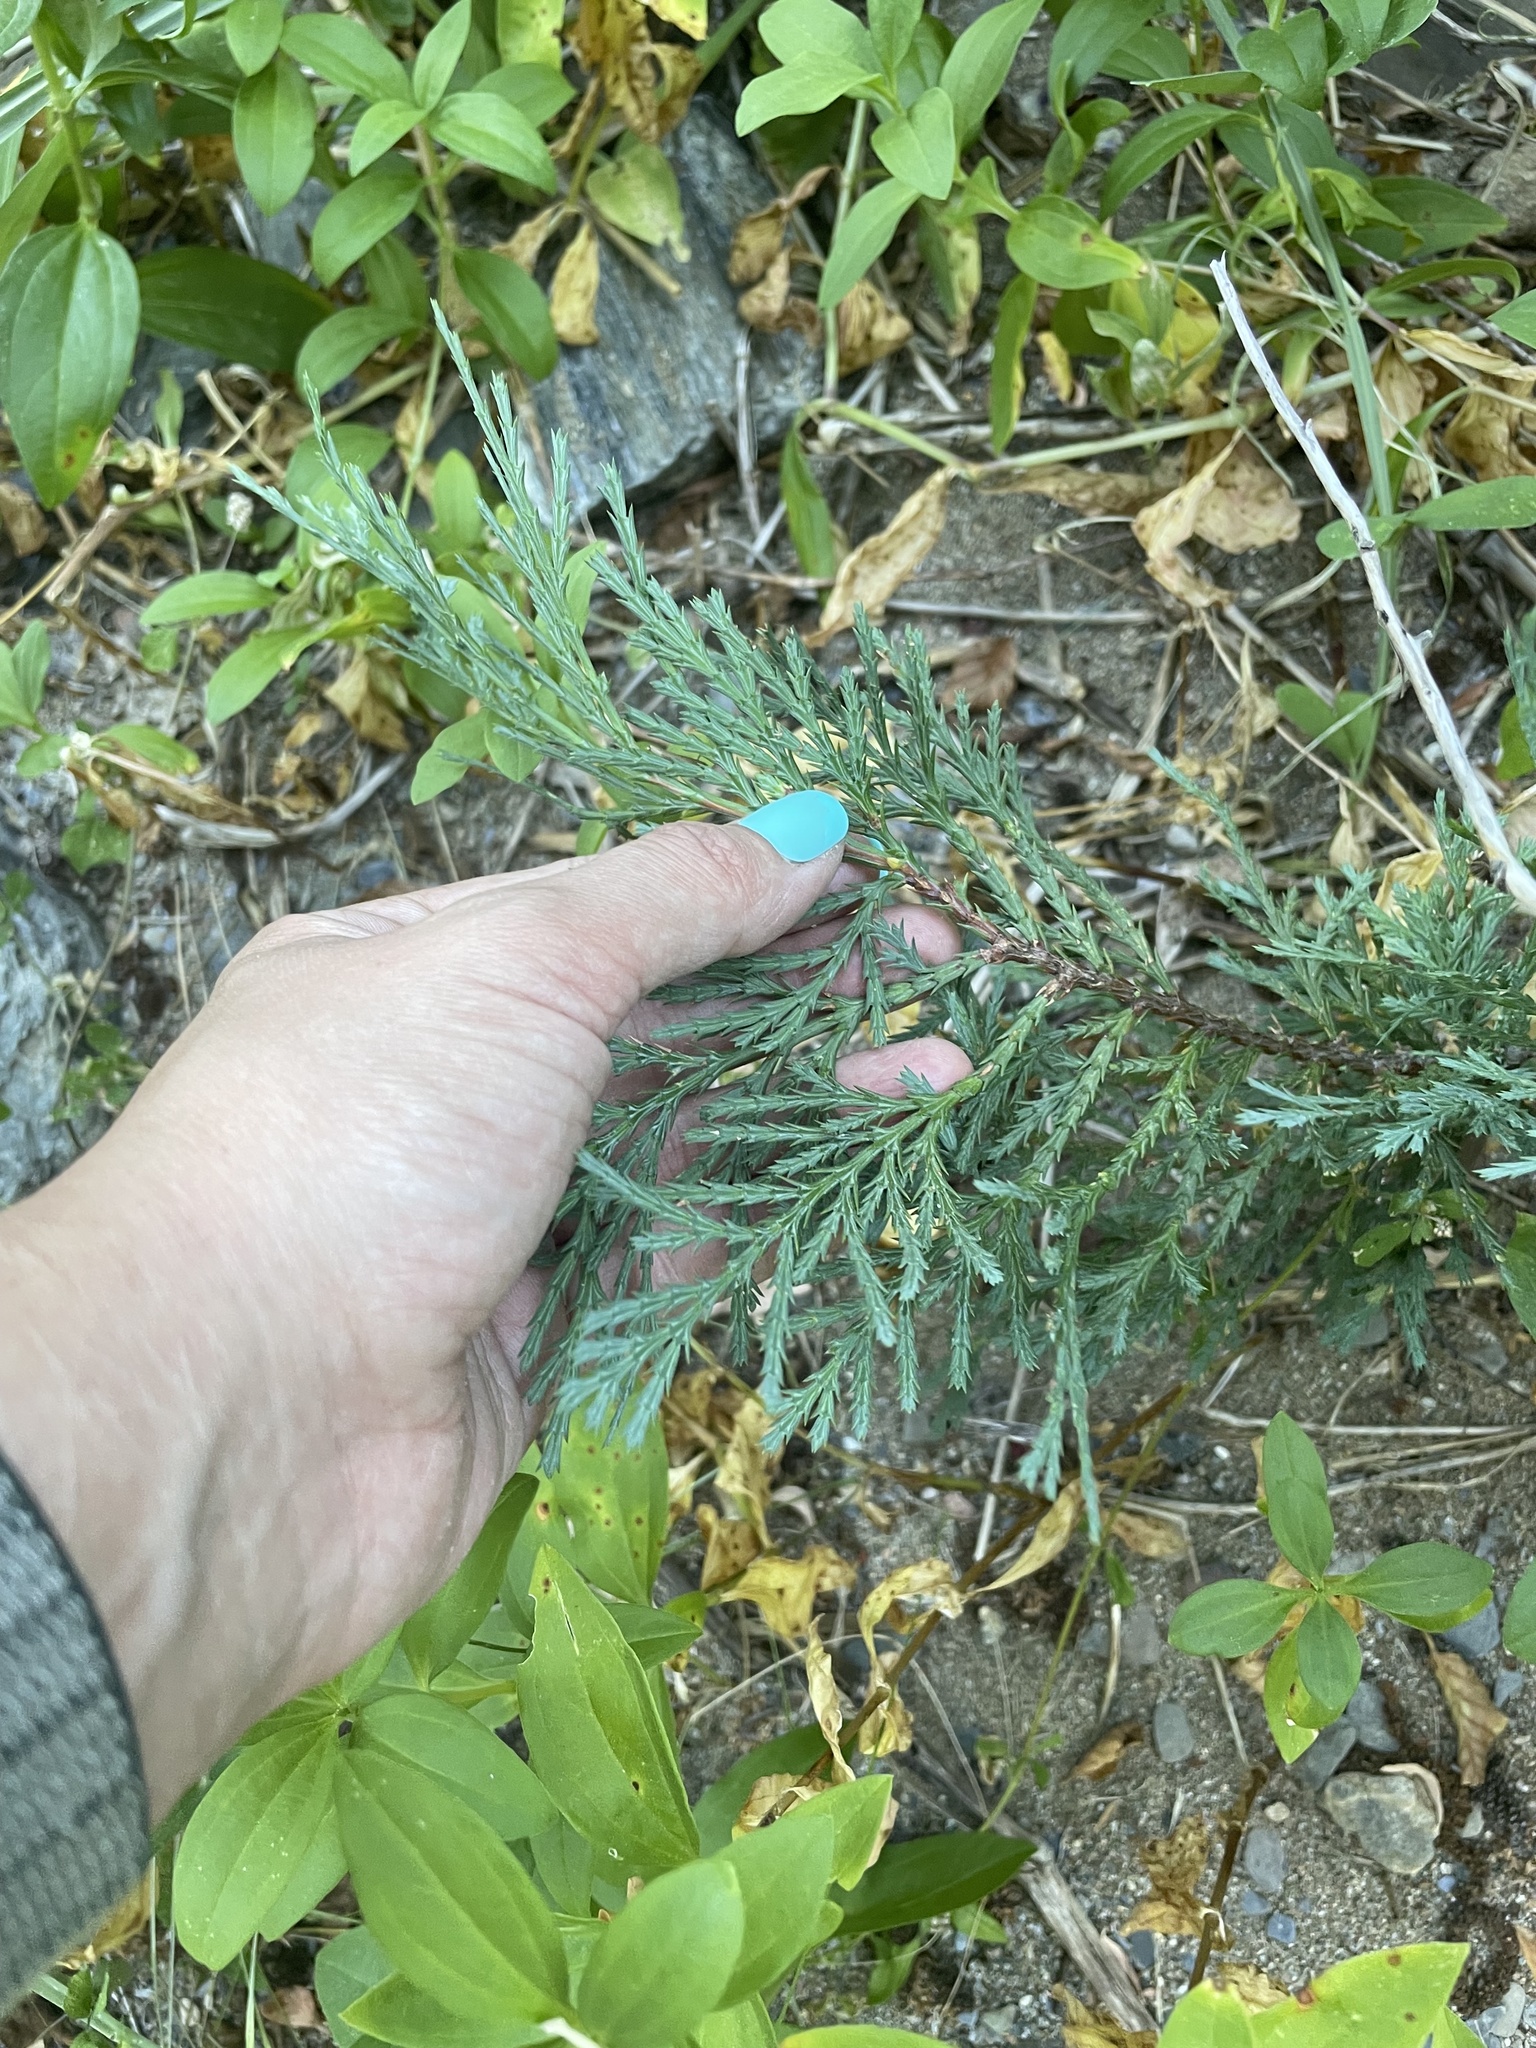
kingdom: Plantae
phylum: Tracheophyta
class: Pinopsida
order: Pinales
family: Cupressaceae
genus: Calocedrus
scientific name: Calocedrus decurrens
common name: Californian incense-cedar
